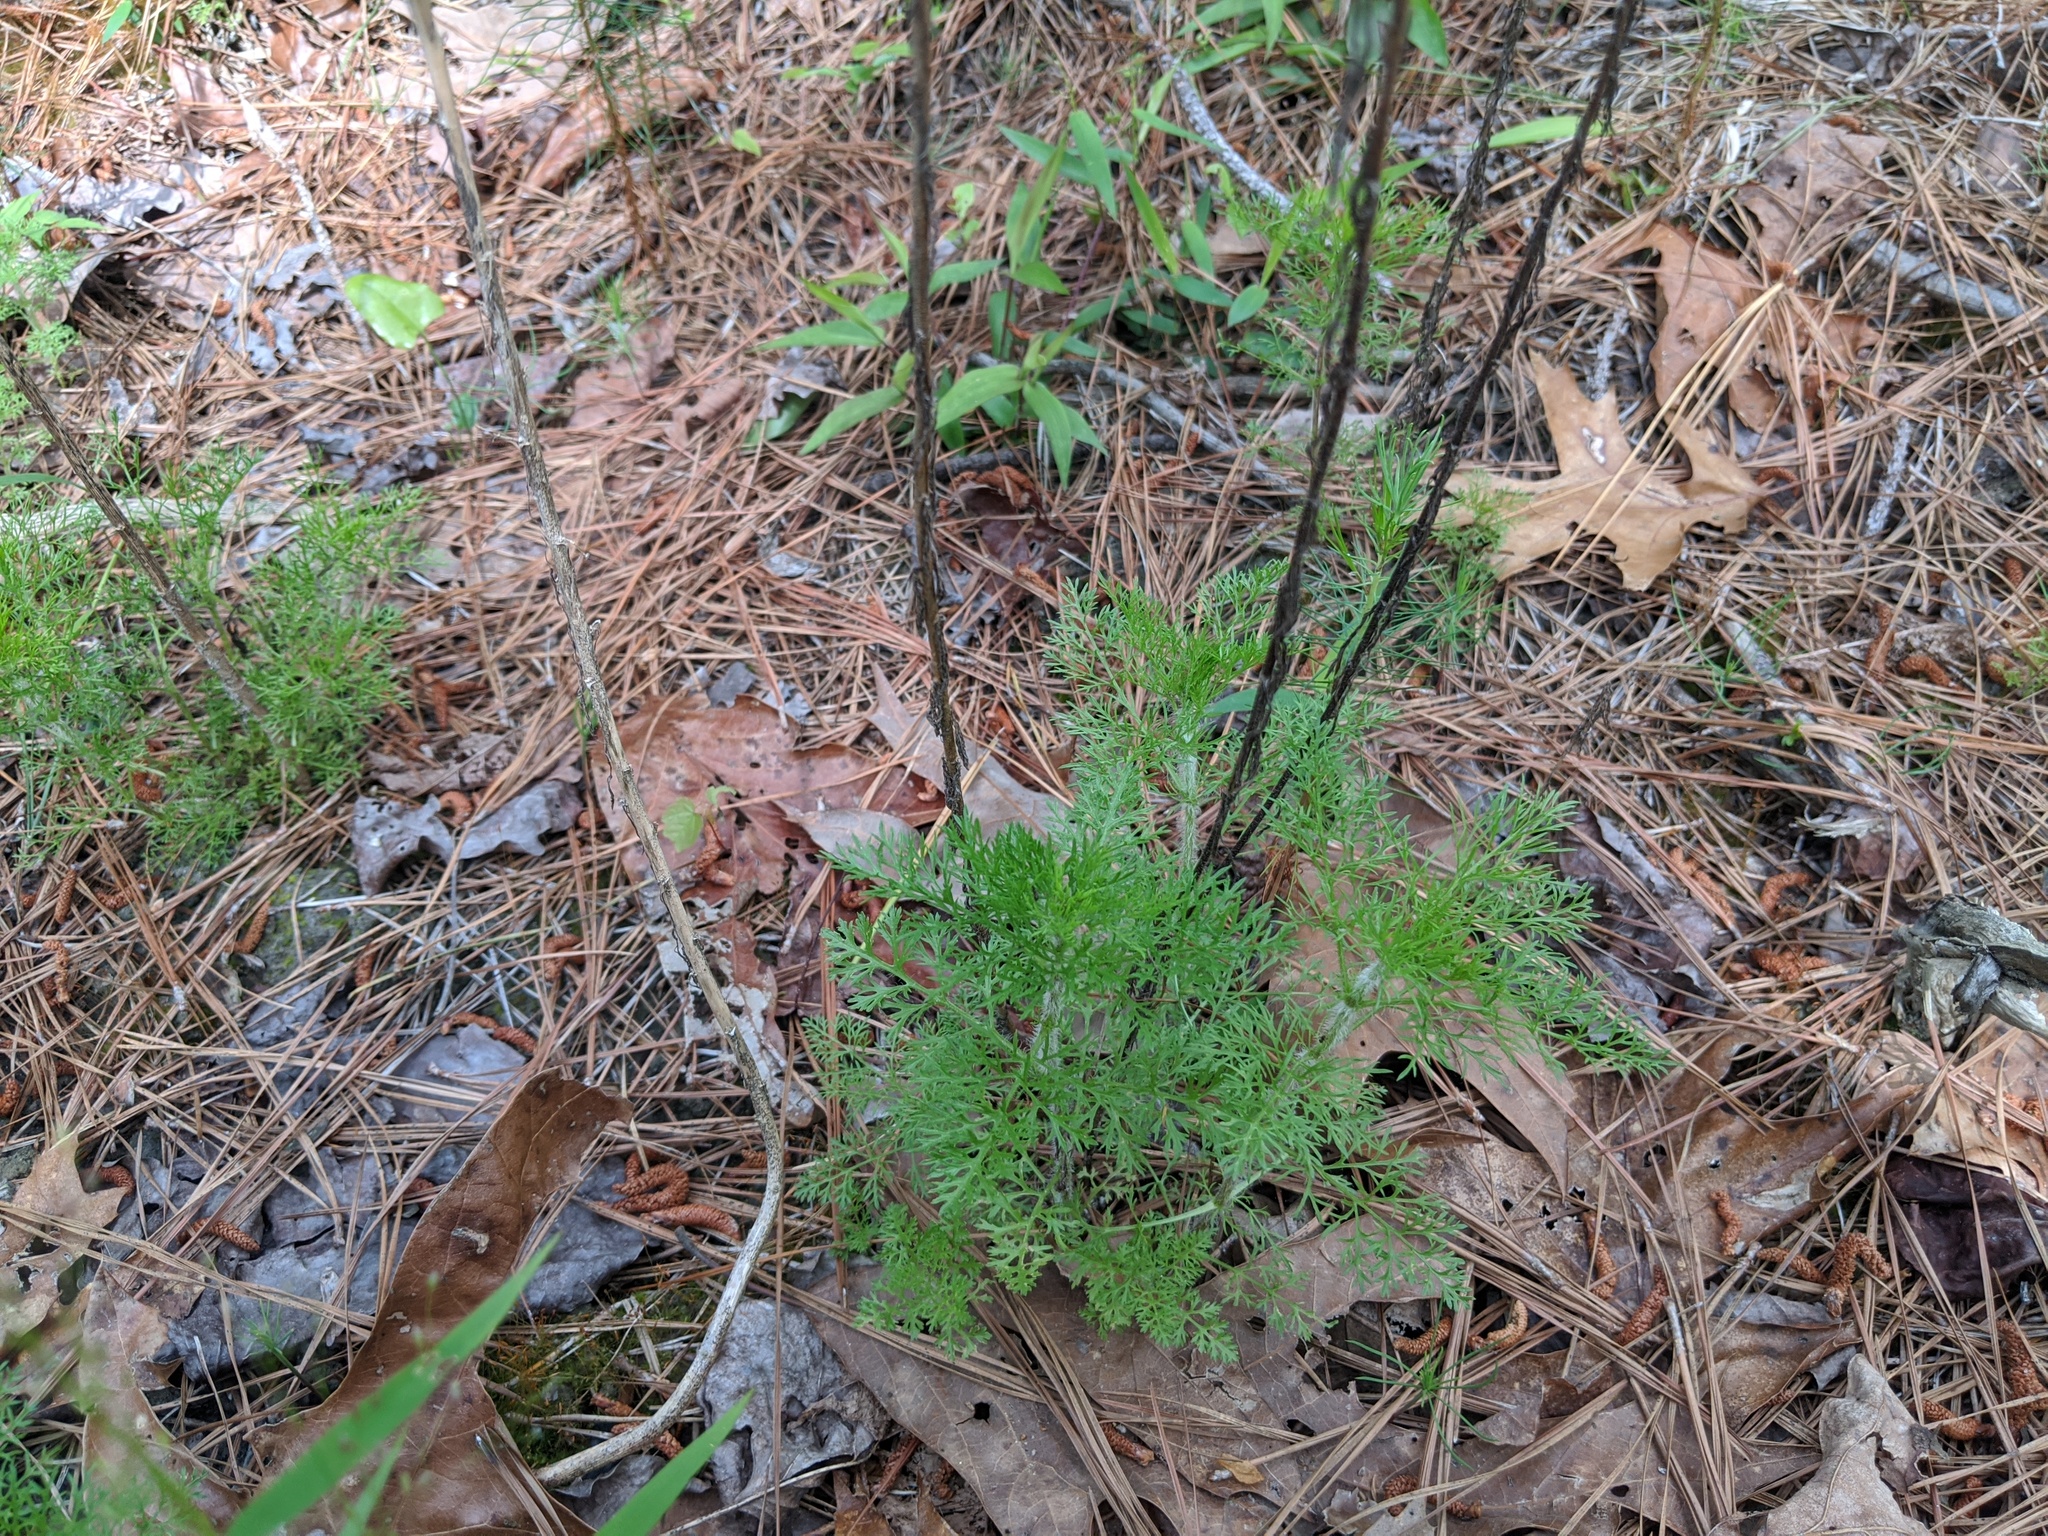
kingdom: Plantae
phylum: Tracheophyta
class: Magnoliopsida
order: Asterales
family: Asteraceae
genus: Eupatorium
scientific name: Eupatorium compositifolium
